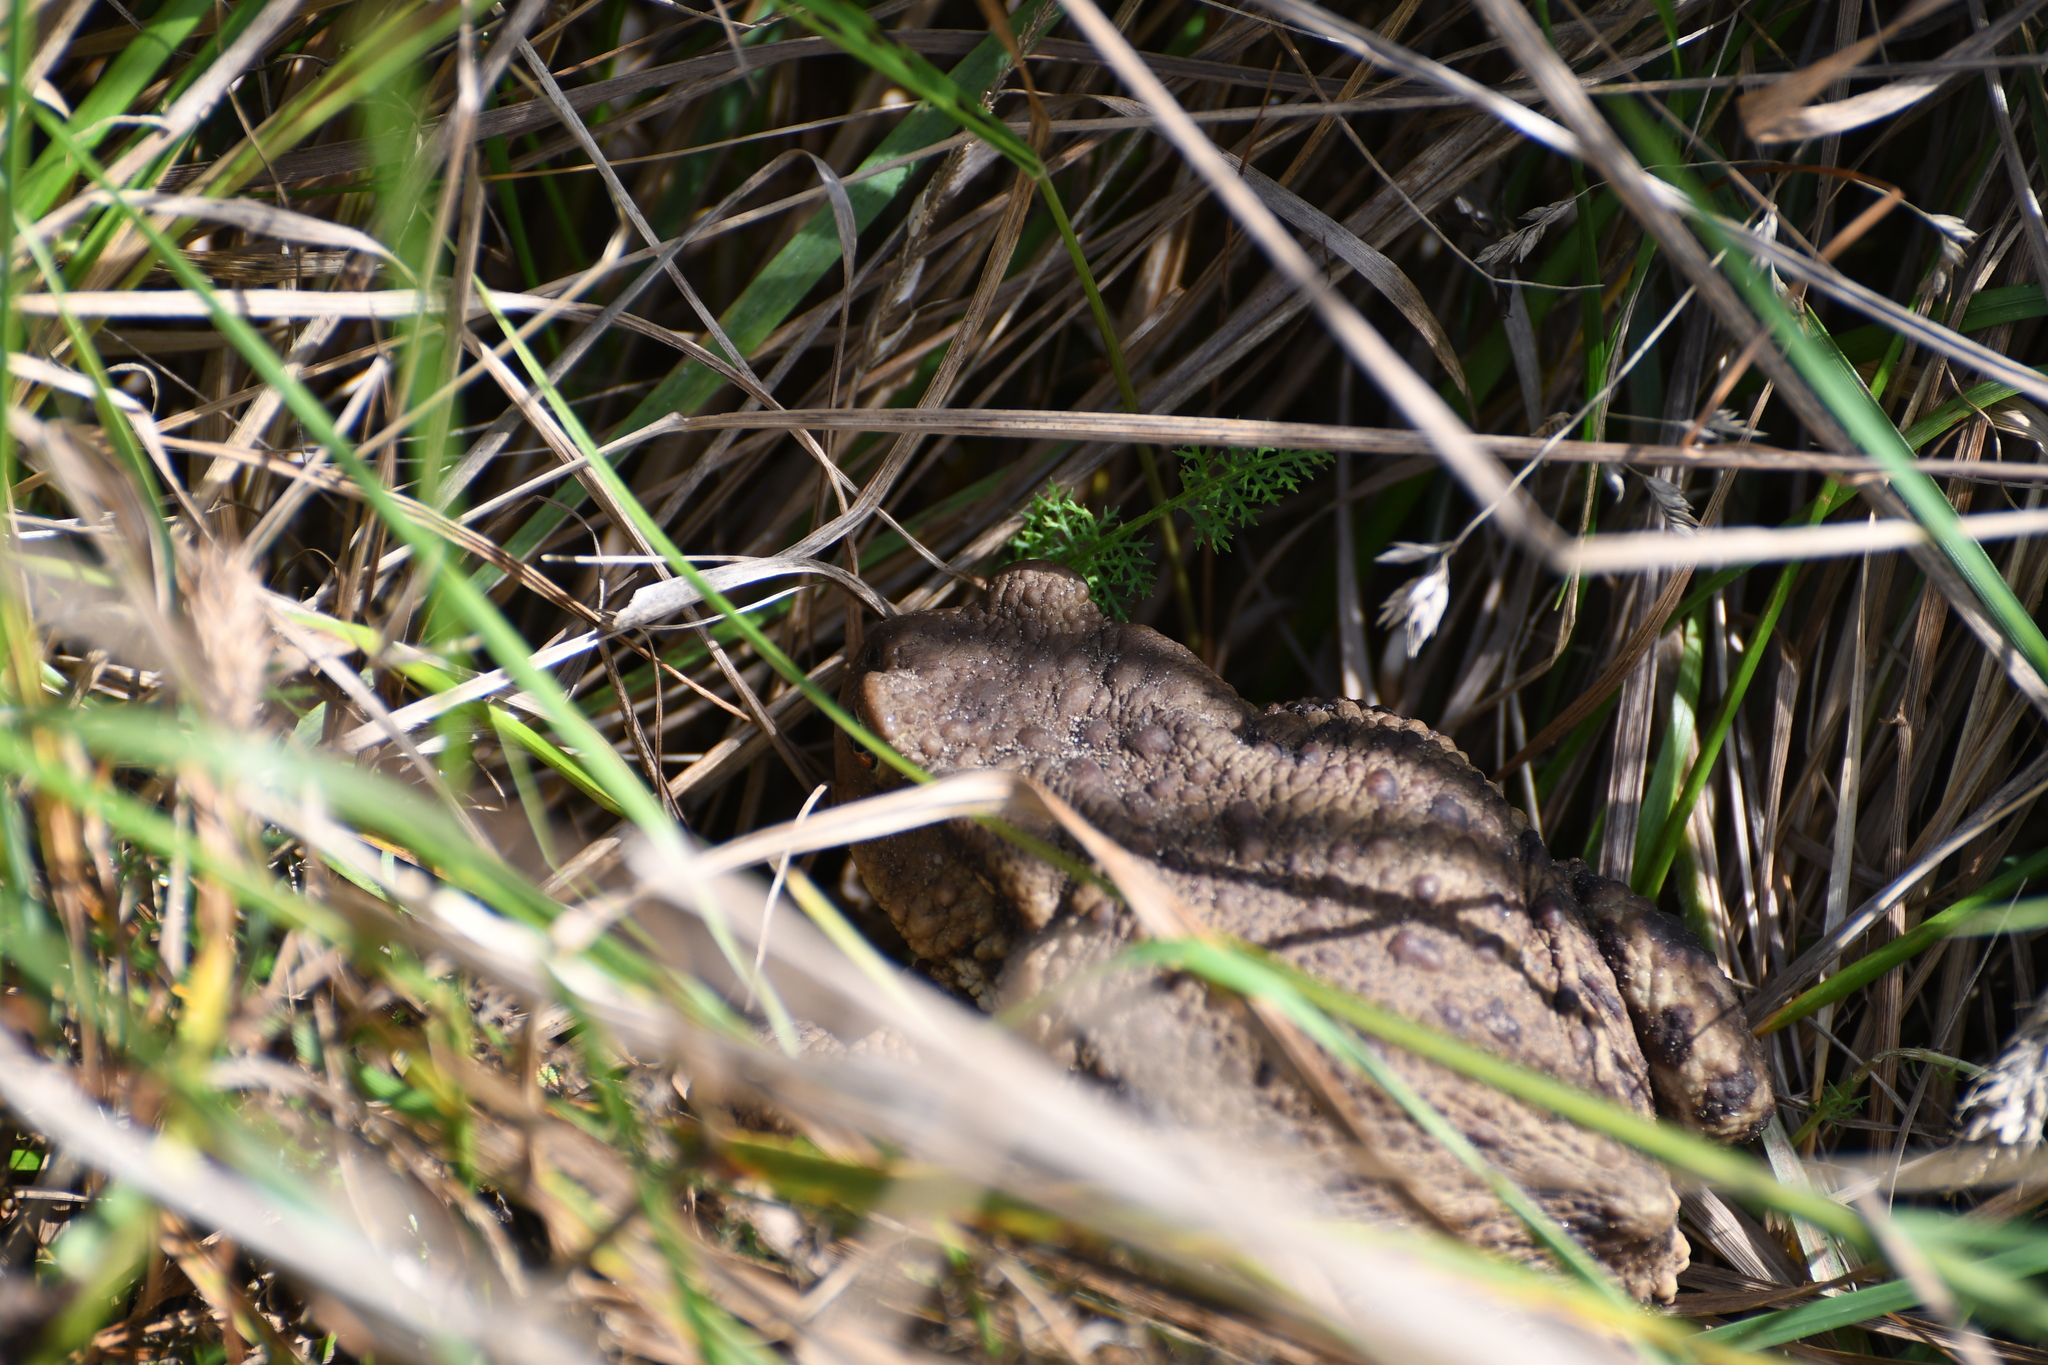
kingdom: Animalia
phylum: Chordata
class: Amphibia
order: Anura
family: Bufonidae
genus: Bufo
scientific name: Bufo bufo
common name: Common toad
